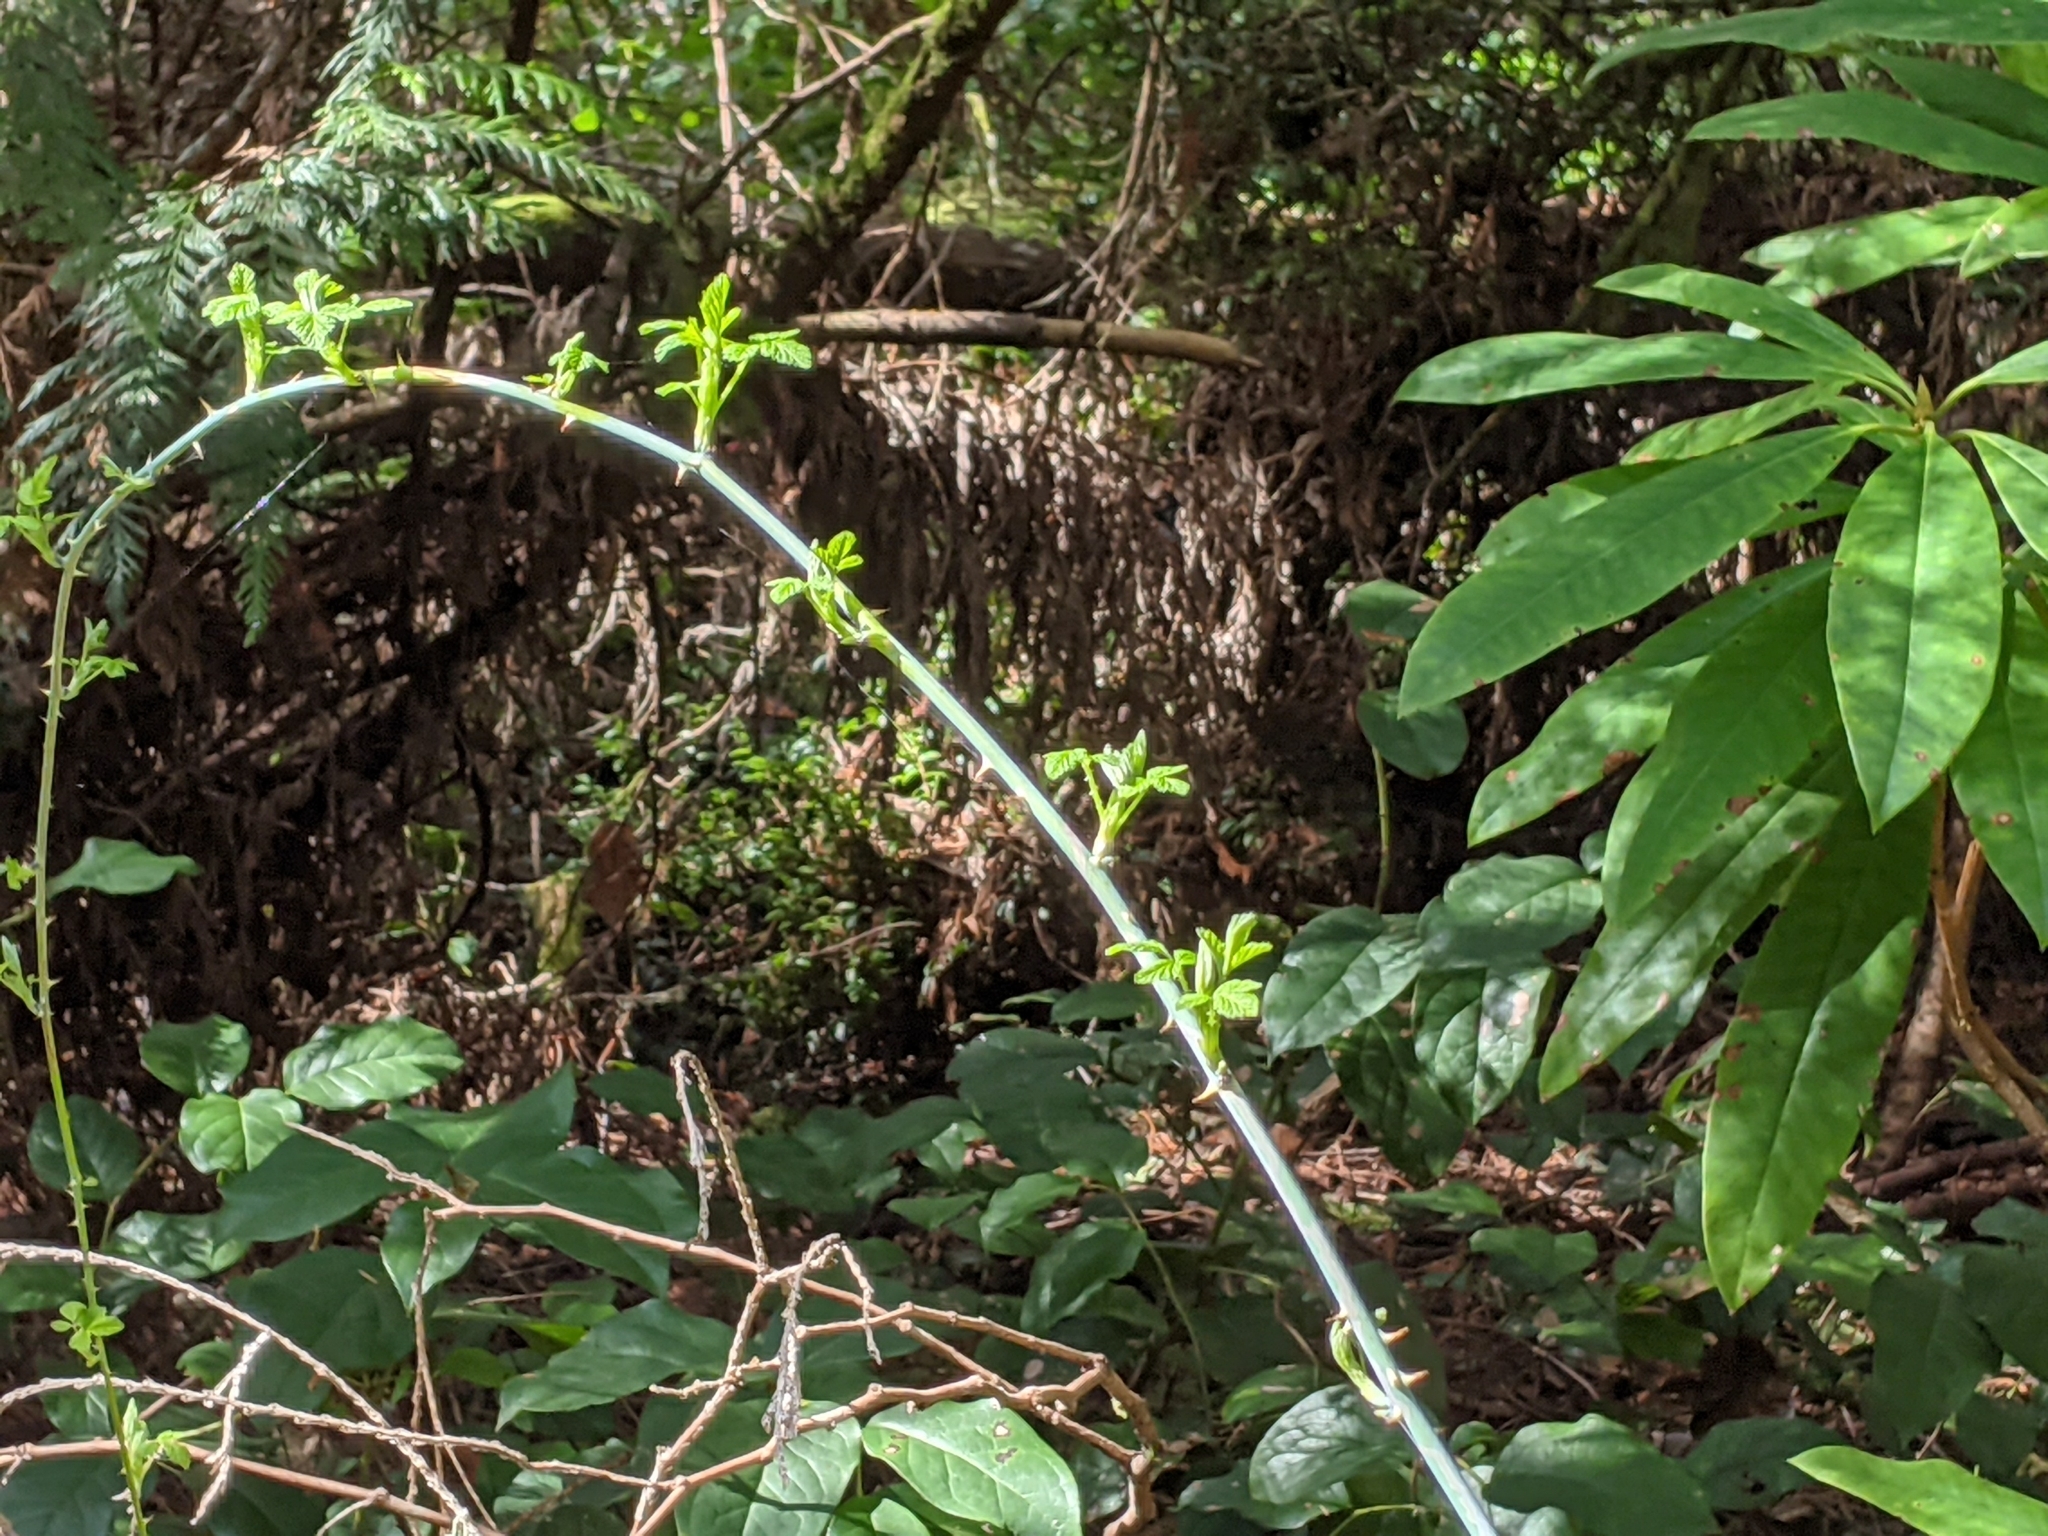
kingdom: Plantae
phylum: Tracheophyta
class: Magnoliopsida
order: Rosales
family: Rosaceae
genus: Rubus
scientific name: Rubus leucodermis
